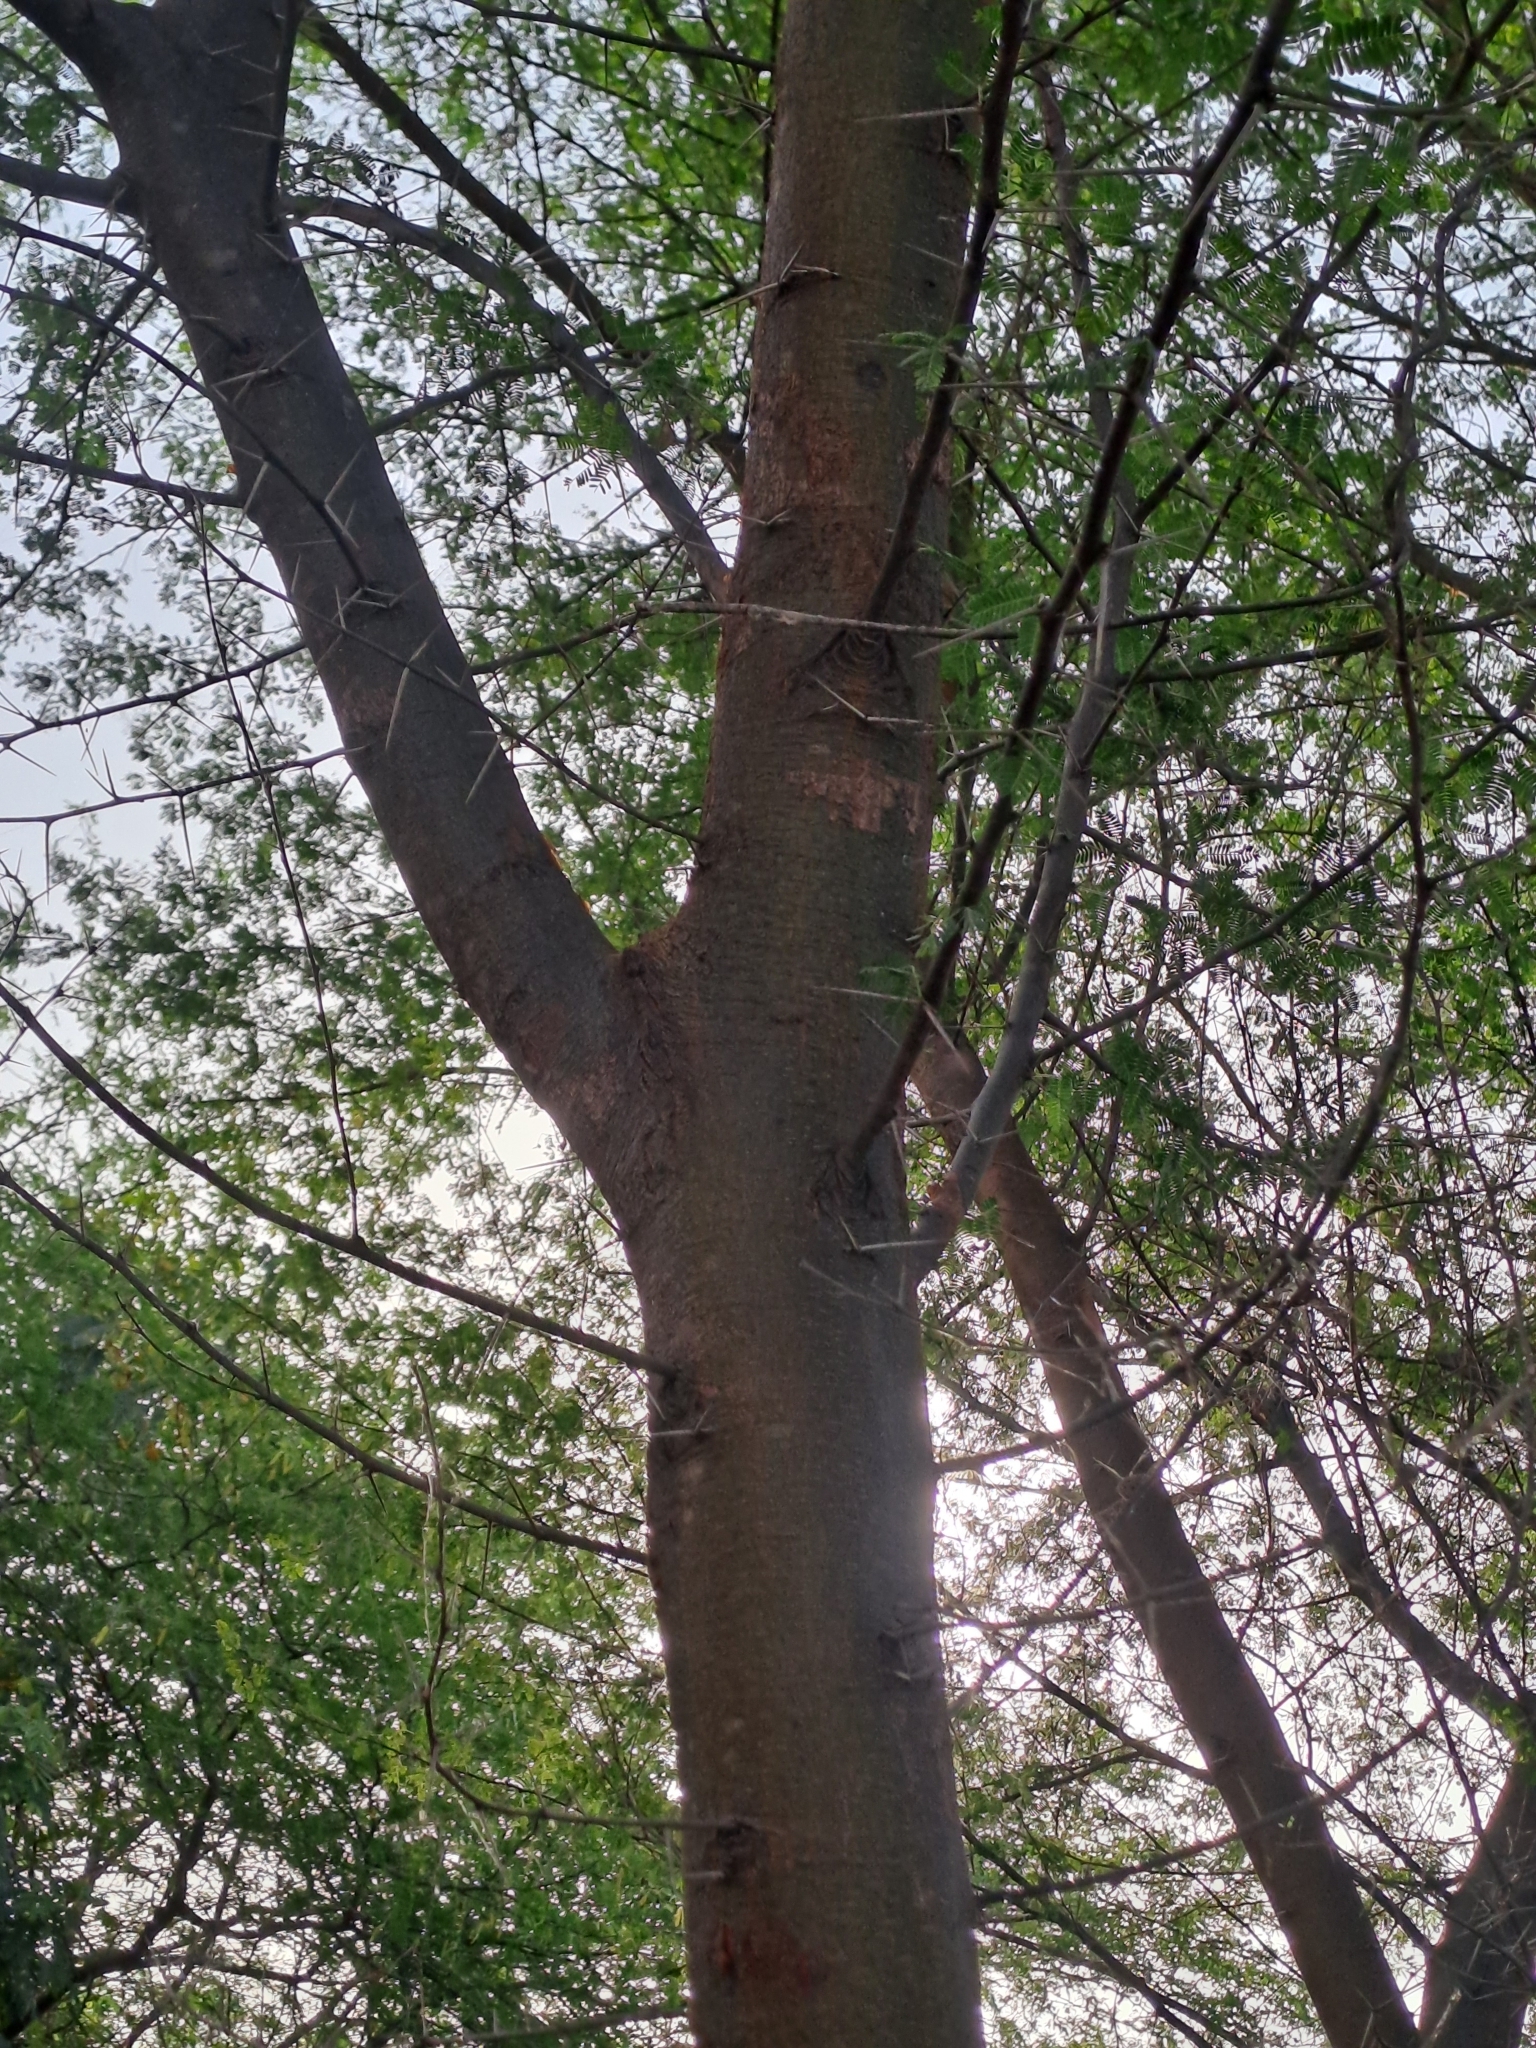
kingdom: Plantae
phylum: Tracheophyta
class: Magnoliopsida
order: Fabales
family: Fabaceae
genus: Vachellia
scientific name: Vachellia nilotica
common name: Arabic gumtree
